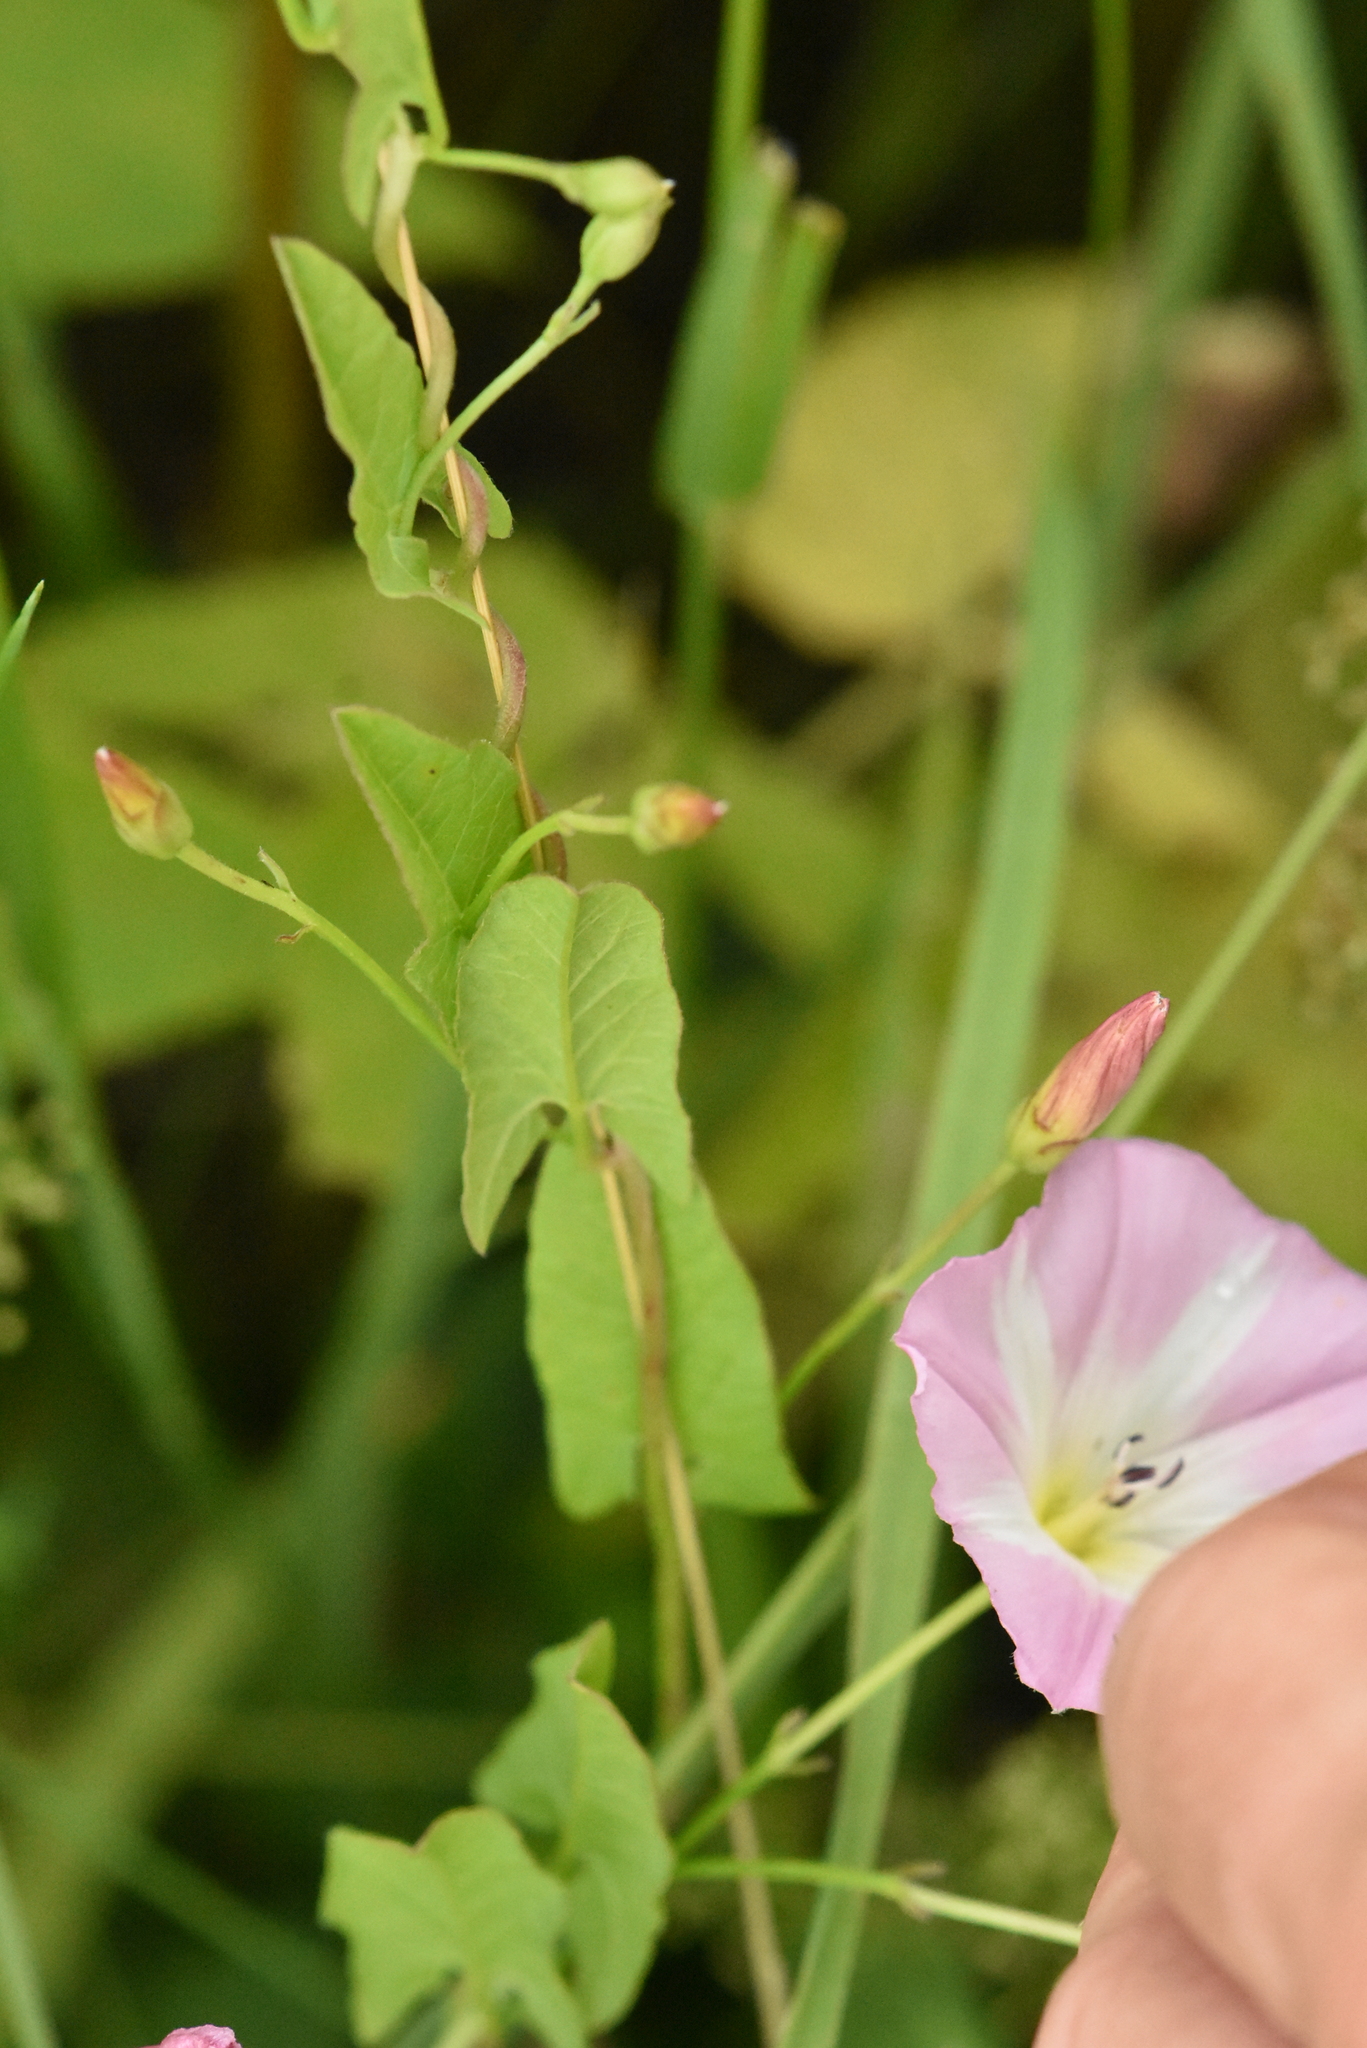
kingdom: Plantae
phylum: Tracheophyta
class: Magnoliopsida
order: Solanales
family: Convolvulaceae
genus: Convolvulus
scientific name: Convolvulus arvensis
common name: Field bindweed
